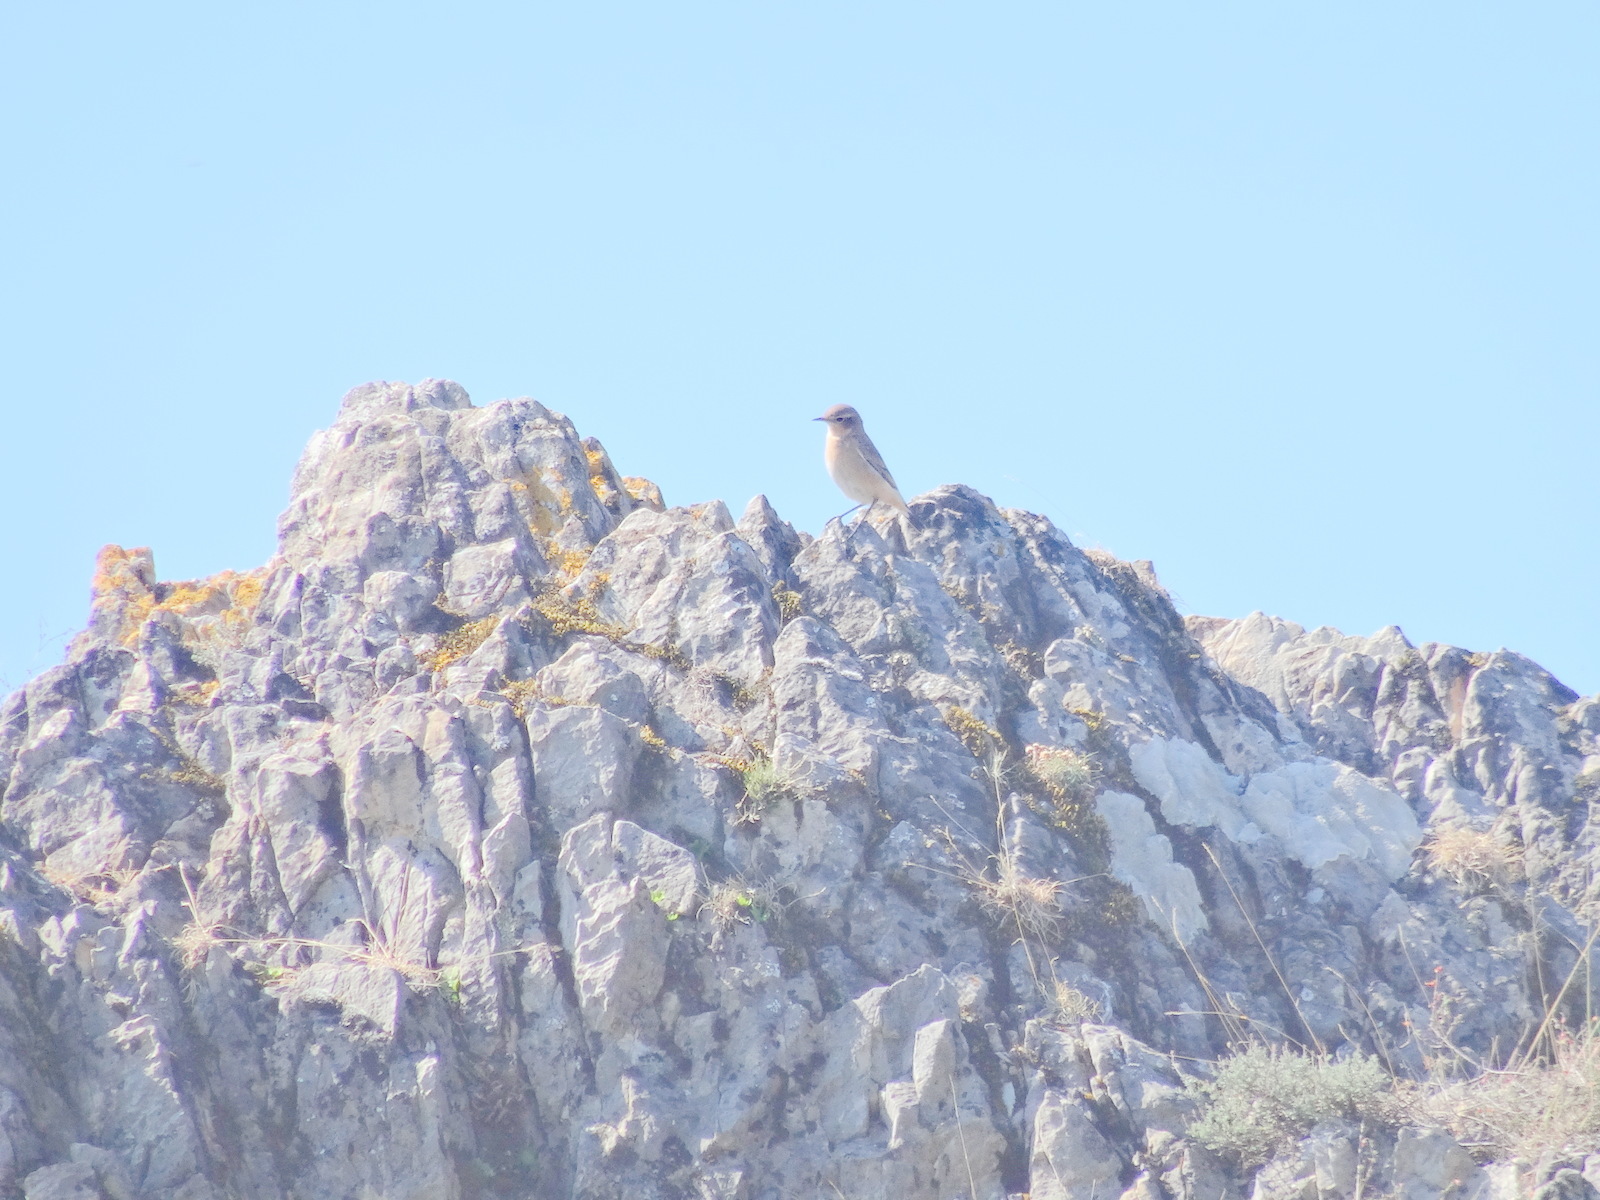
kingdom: Animalia
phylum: Chordata
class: Aves
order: Passeriformes
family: Muscicapidae
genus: Oenanthe
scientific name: Oenanthe oenanthe
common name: Northern wheatear
